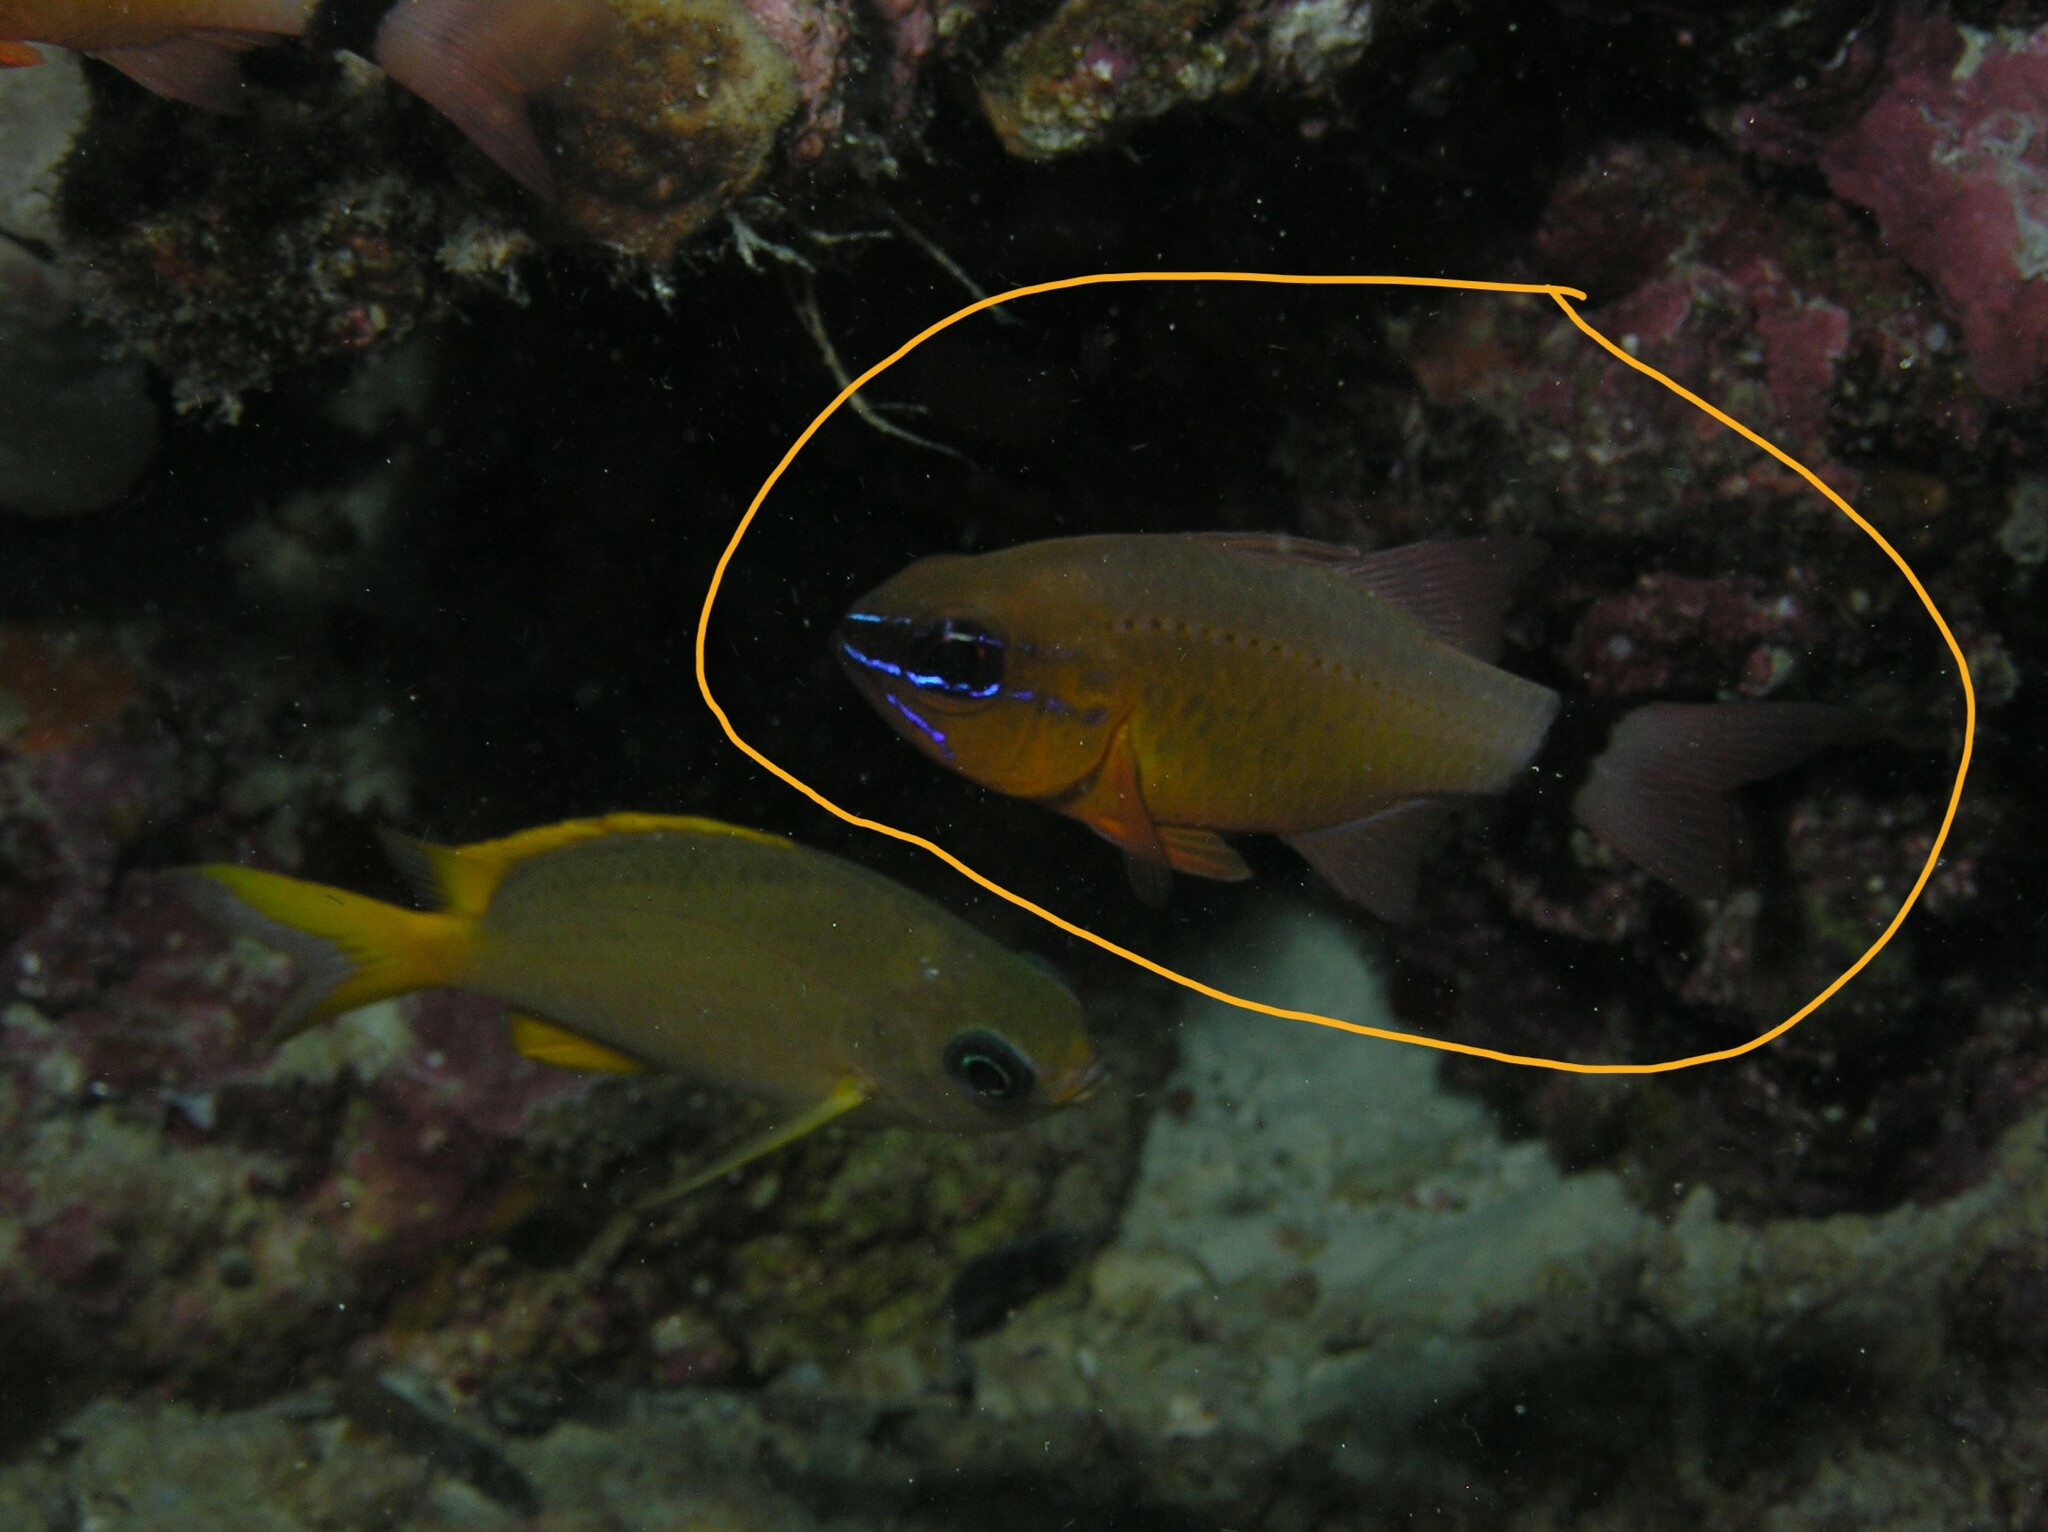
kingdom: Animalia
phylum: Chordata
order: Perciformes
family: Apogonidae
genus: Ostorhinchus
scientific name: Ostorhinchus aureus
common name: Ring-tailed cardinalfish
